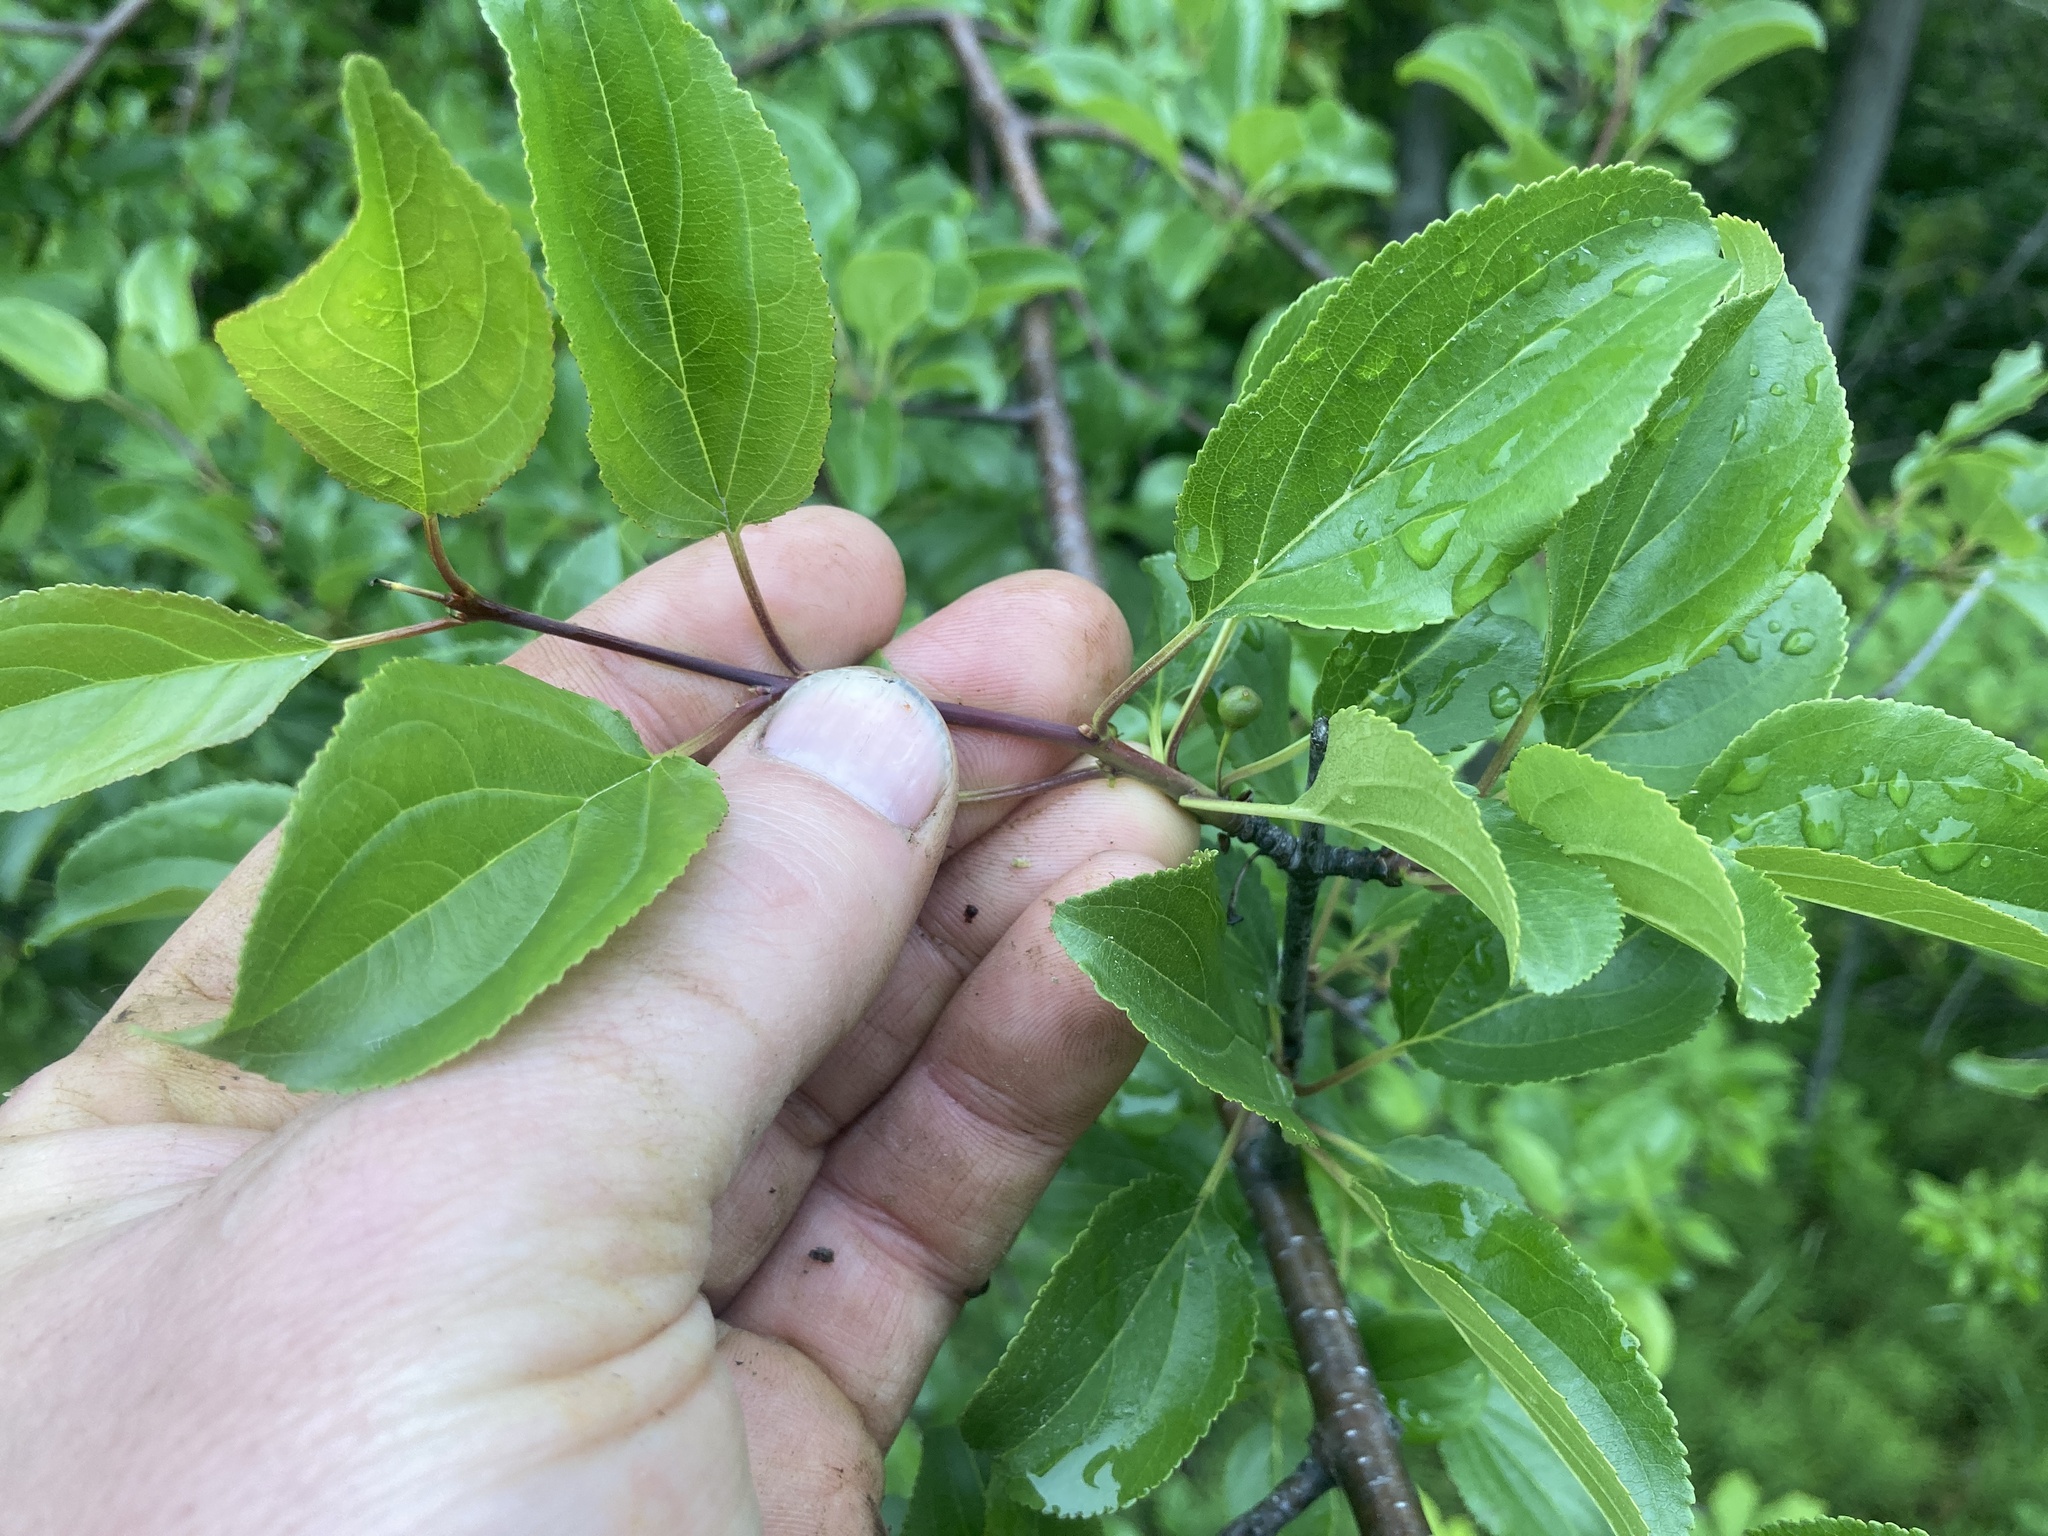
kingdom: Plantae
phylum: Tracheophyta
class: Magnoliopsida
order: Rosales
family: Rhamnaceae
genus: Rhamnus
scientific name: Rhamnus cathartica
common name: Common buckthorn
